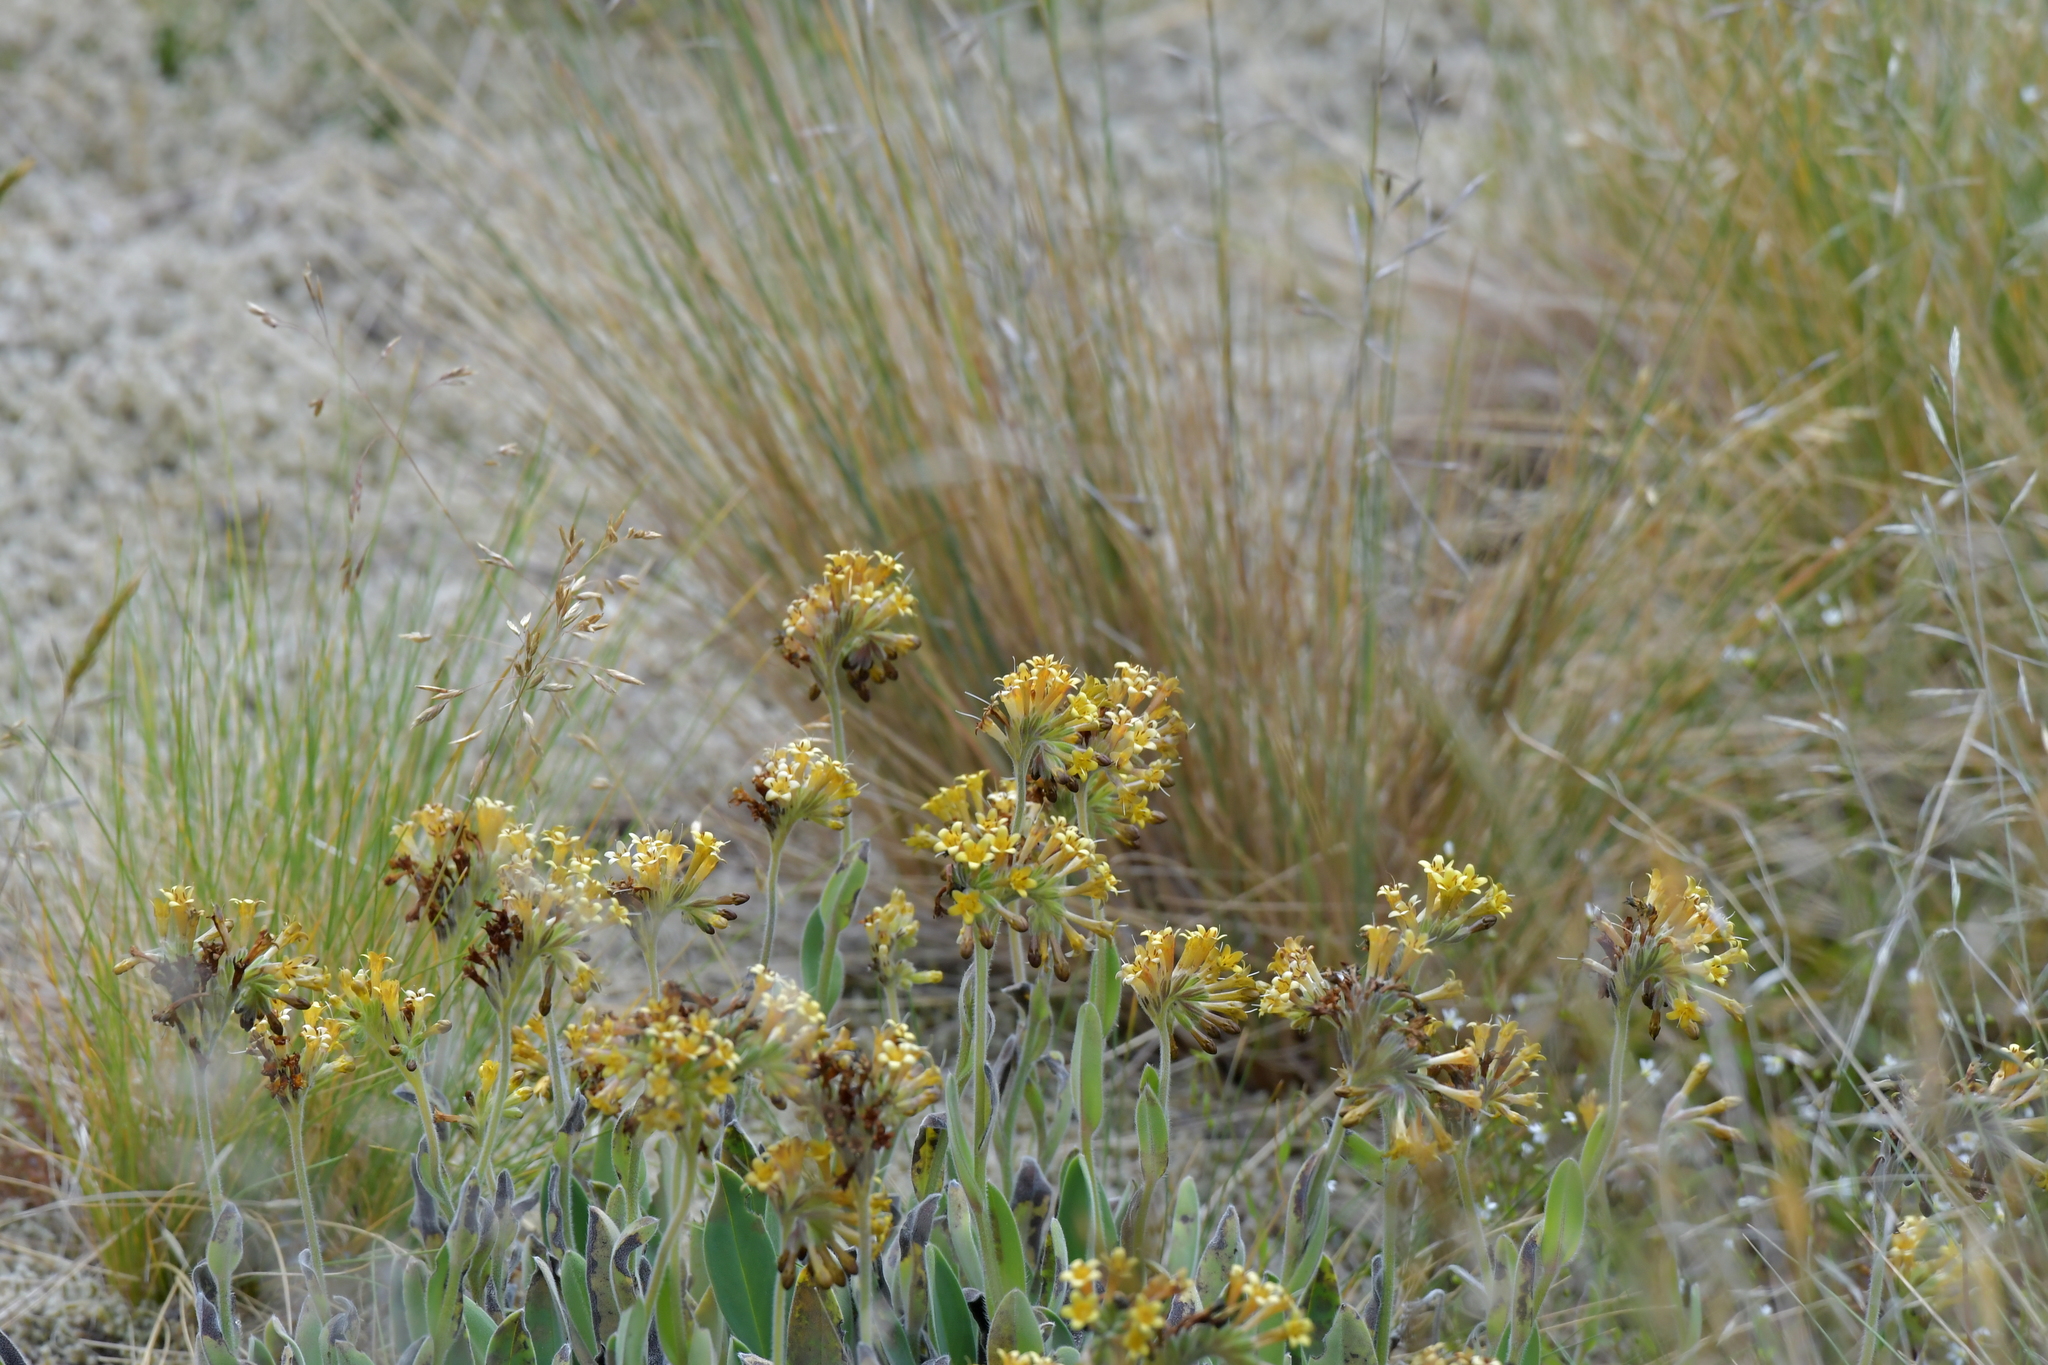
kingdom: Plantae
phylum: Tracheophyta
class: Magnoliopsida
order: Boraginales
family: Boraginaceae
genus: Myosotis
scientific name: Myosotis macrantha
